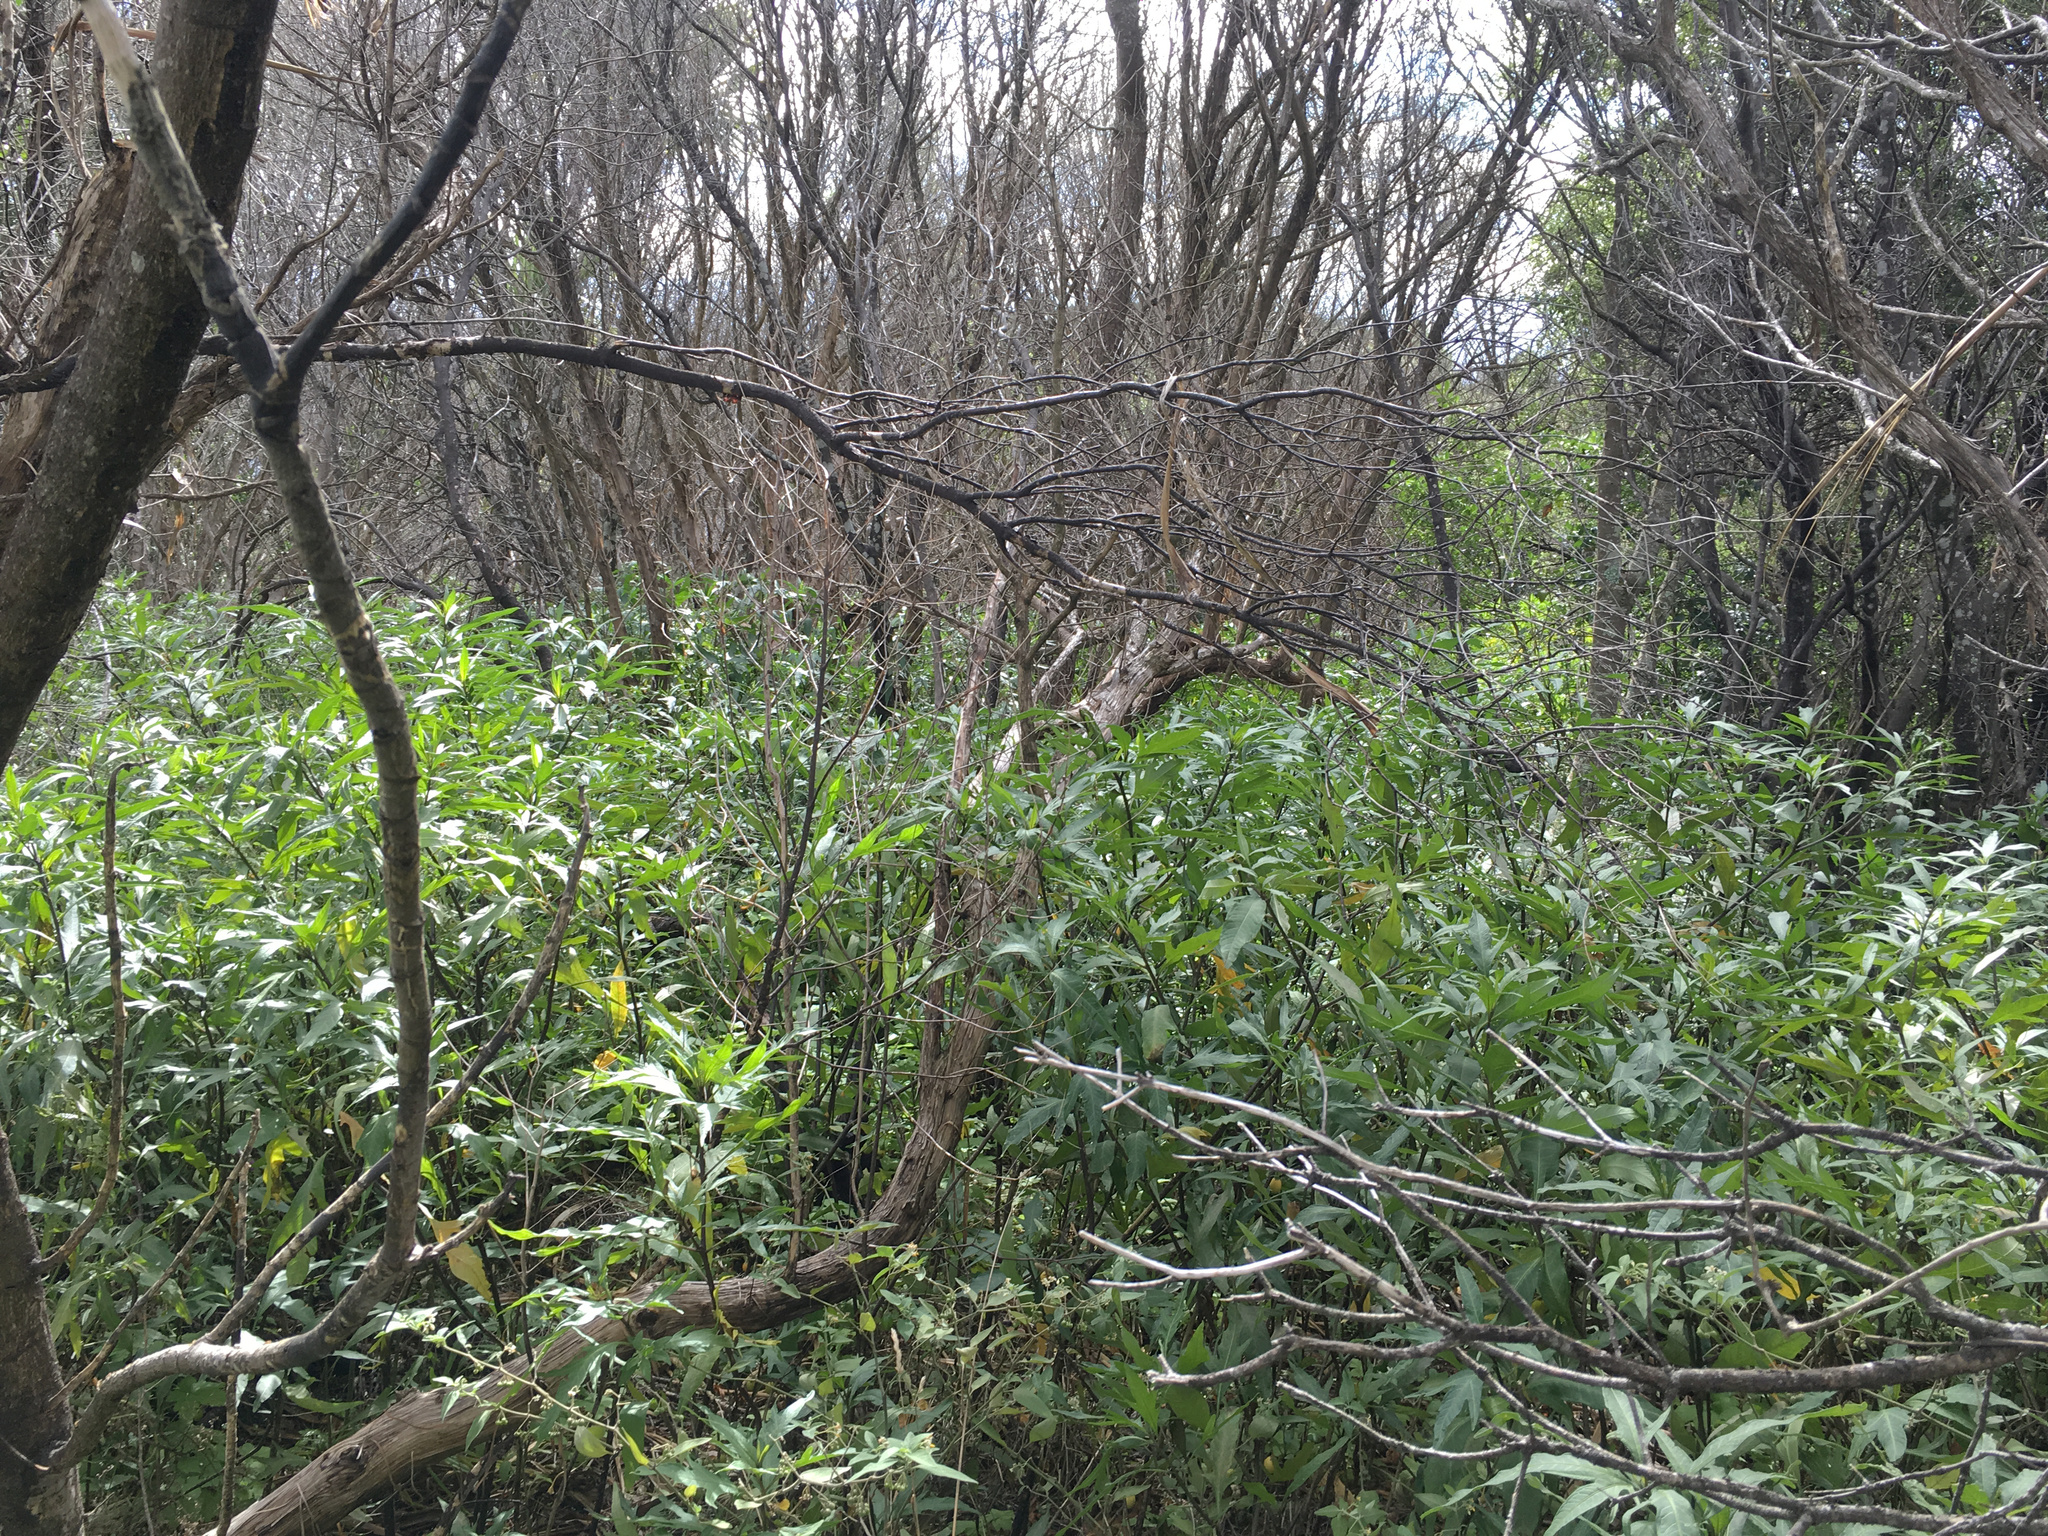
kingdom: Plantae
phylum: Tracheophyta
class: Magnoliopsida
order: Solanales
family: Solanaceae
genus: Solanum
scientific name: Solanum laciniatum
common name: Kangaroo-apple
